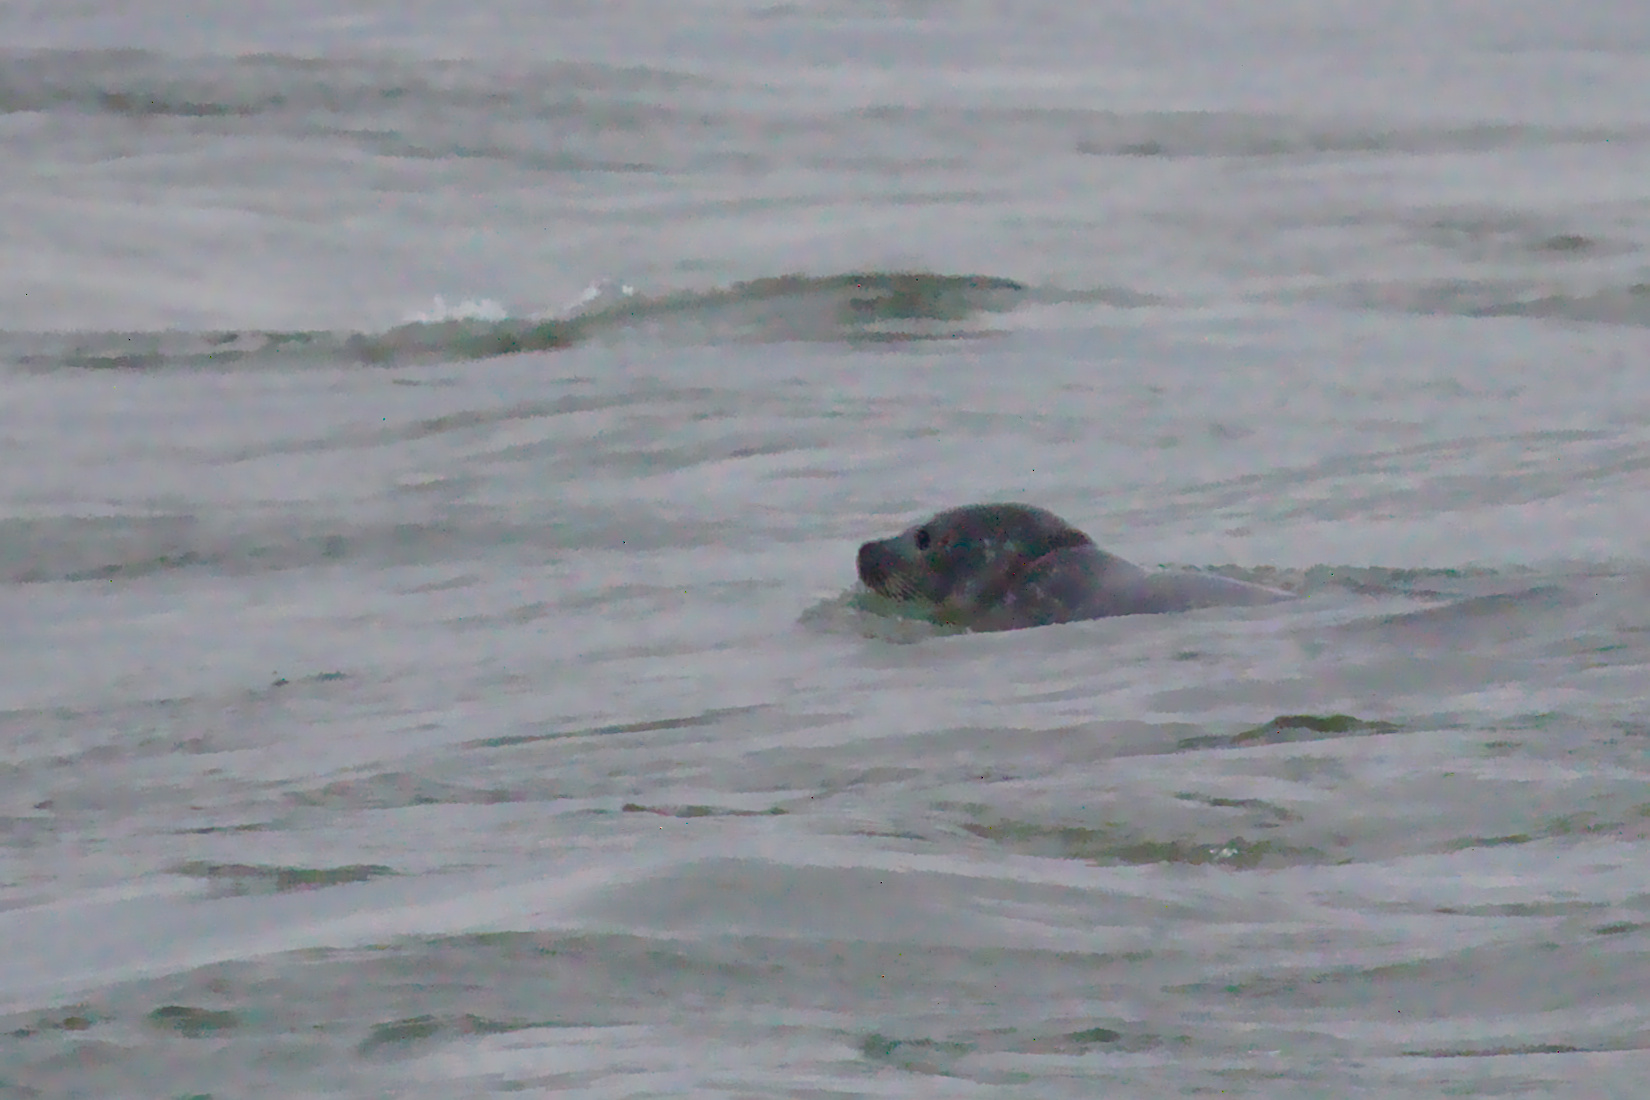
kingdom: Animalia
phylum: Chordata
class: Mammalia
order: Carnivora
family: Phocidae
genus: Phoca
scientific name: Phoca vitulina
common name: Harbor seal
